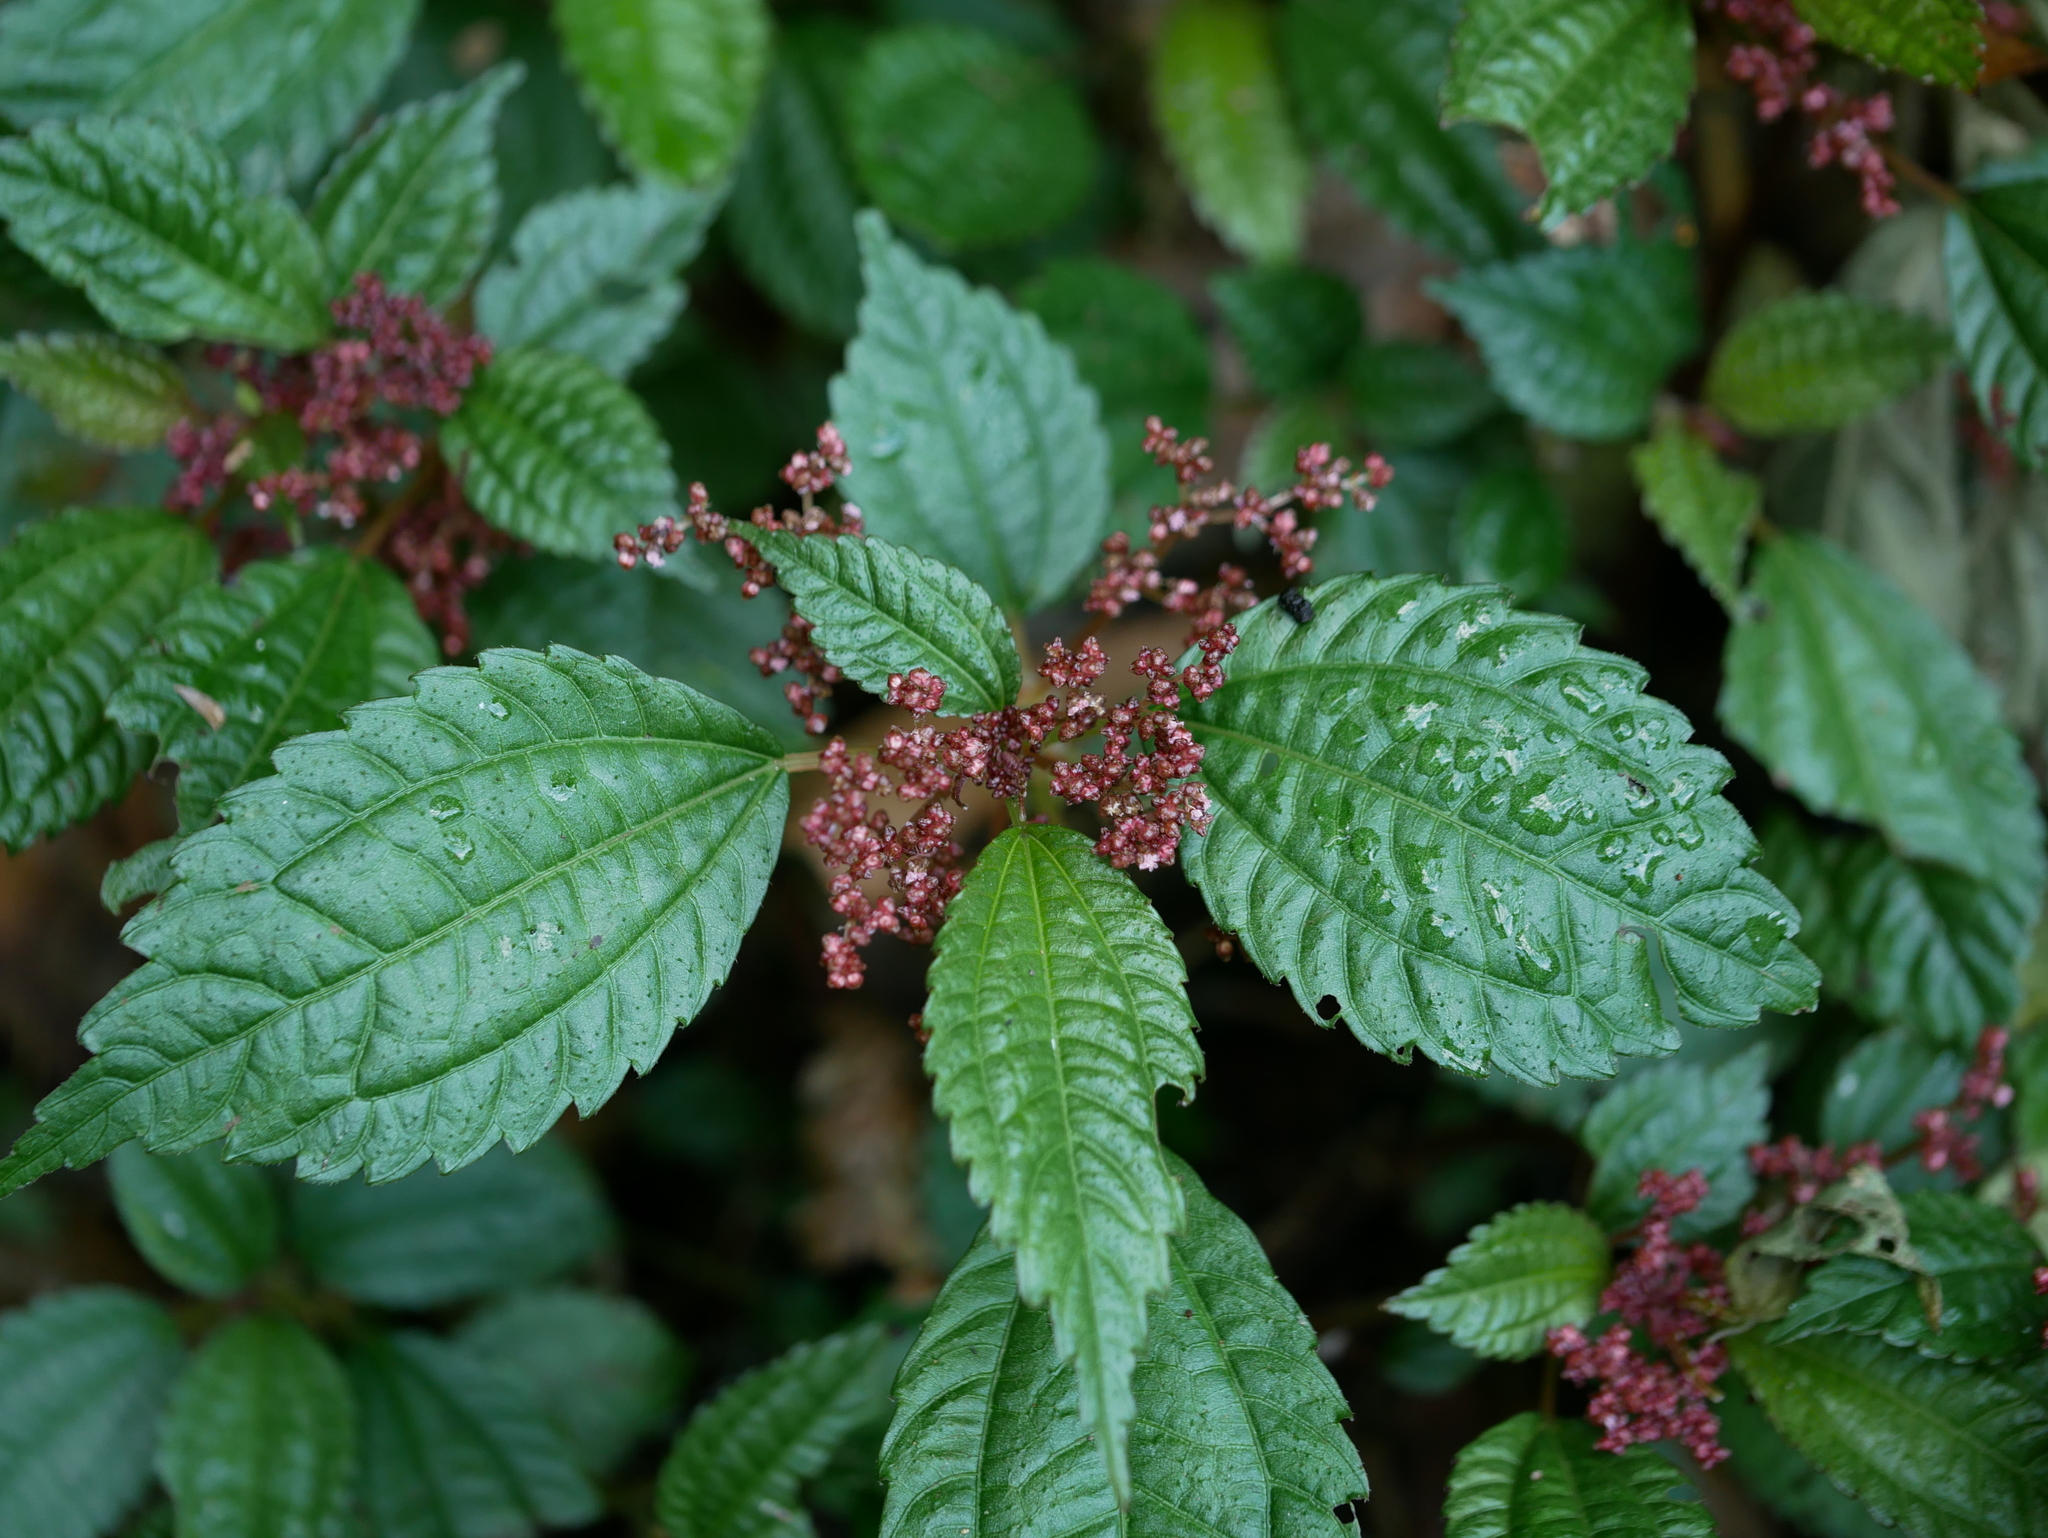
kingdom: Plantae
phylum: Tracheophyta
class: Magnoliopsida
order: Rosales
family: Urticaceae
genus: Pilea
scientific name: Pilea aquarum
